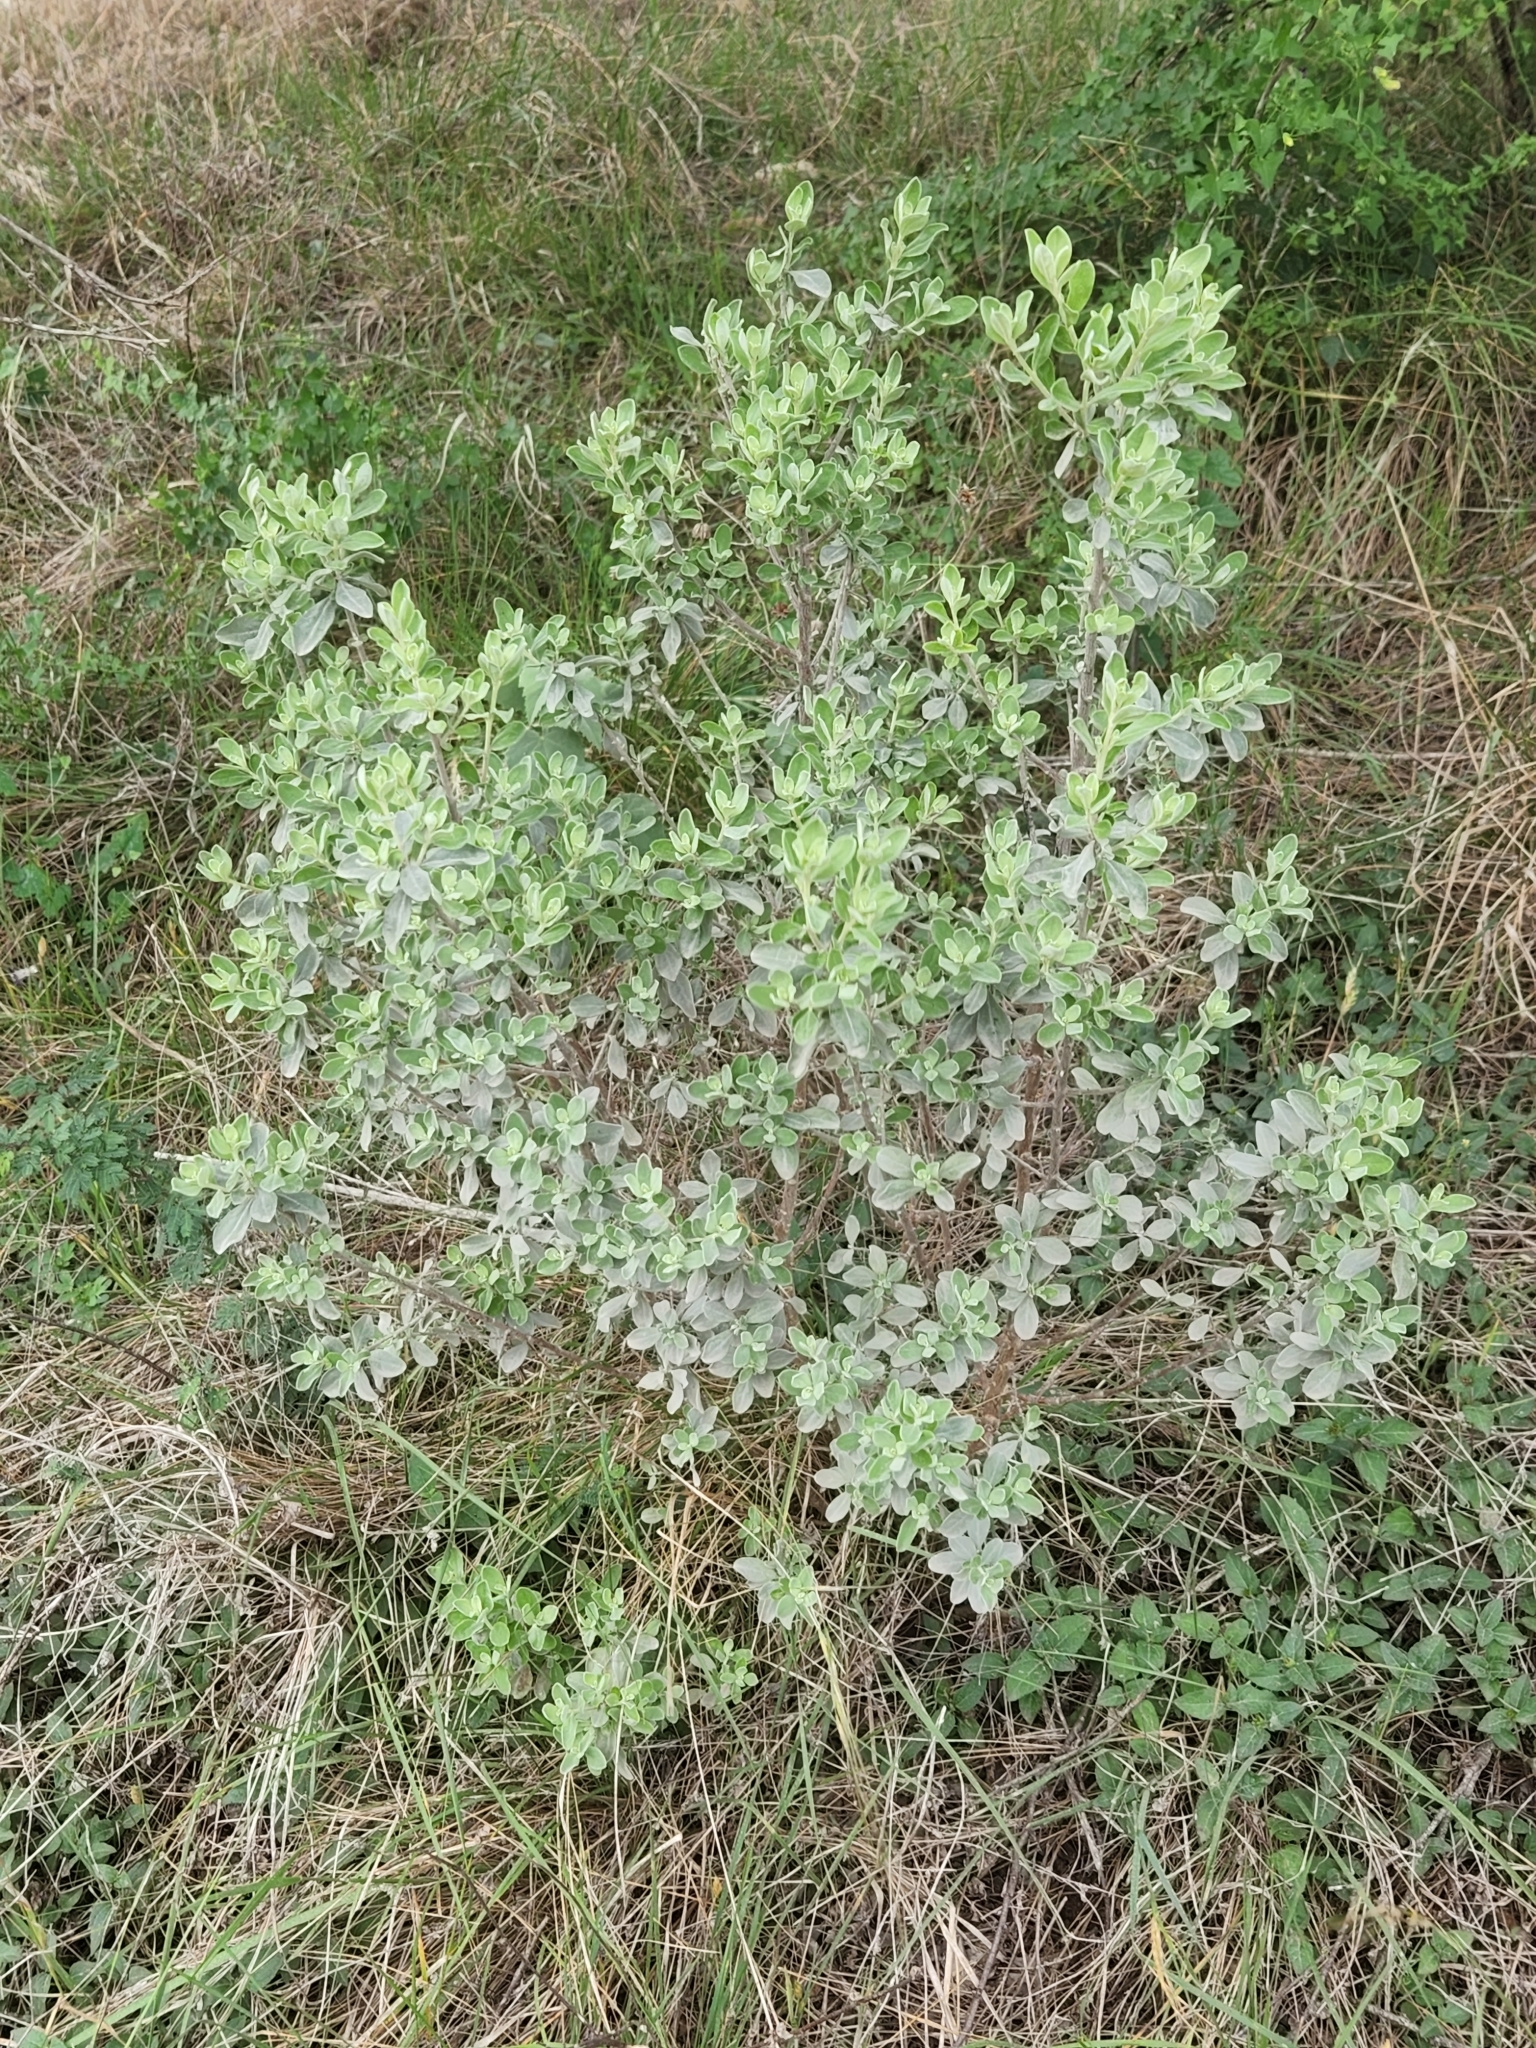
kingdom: Plantae
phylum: Tracheophyta
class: Magnoliopsida
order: Lamiales
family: Scrophulariaceae
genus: Leucophyllum
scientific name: Leucophyllum frutescens
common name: Texas silverleaf
